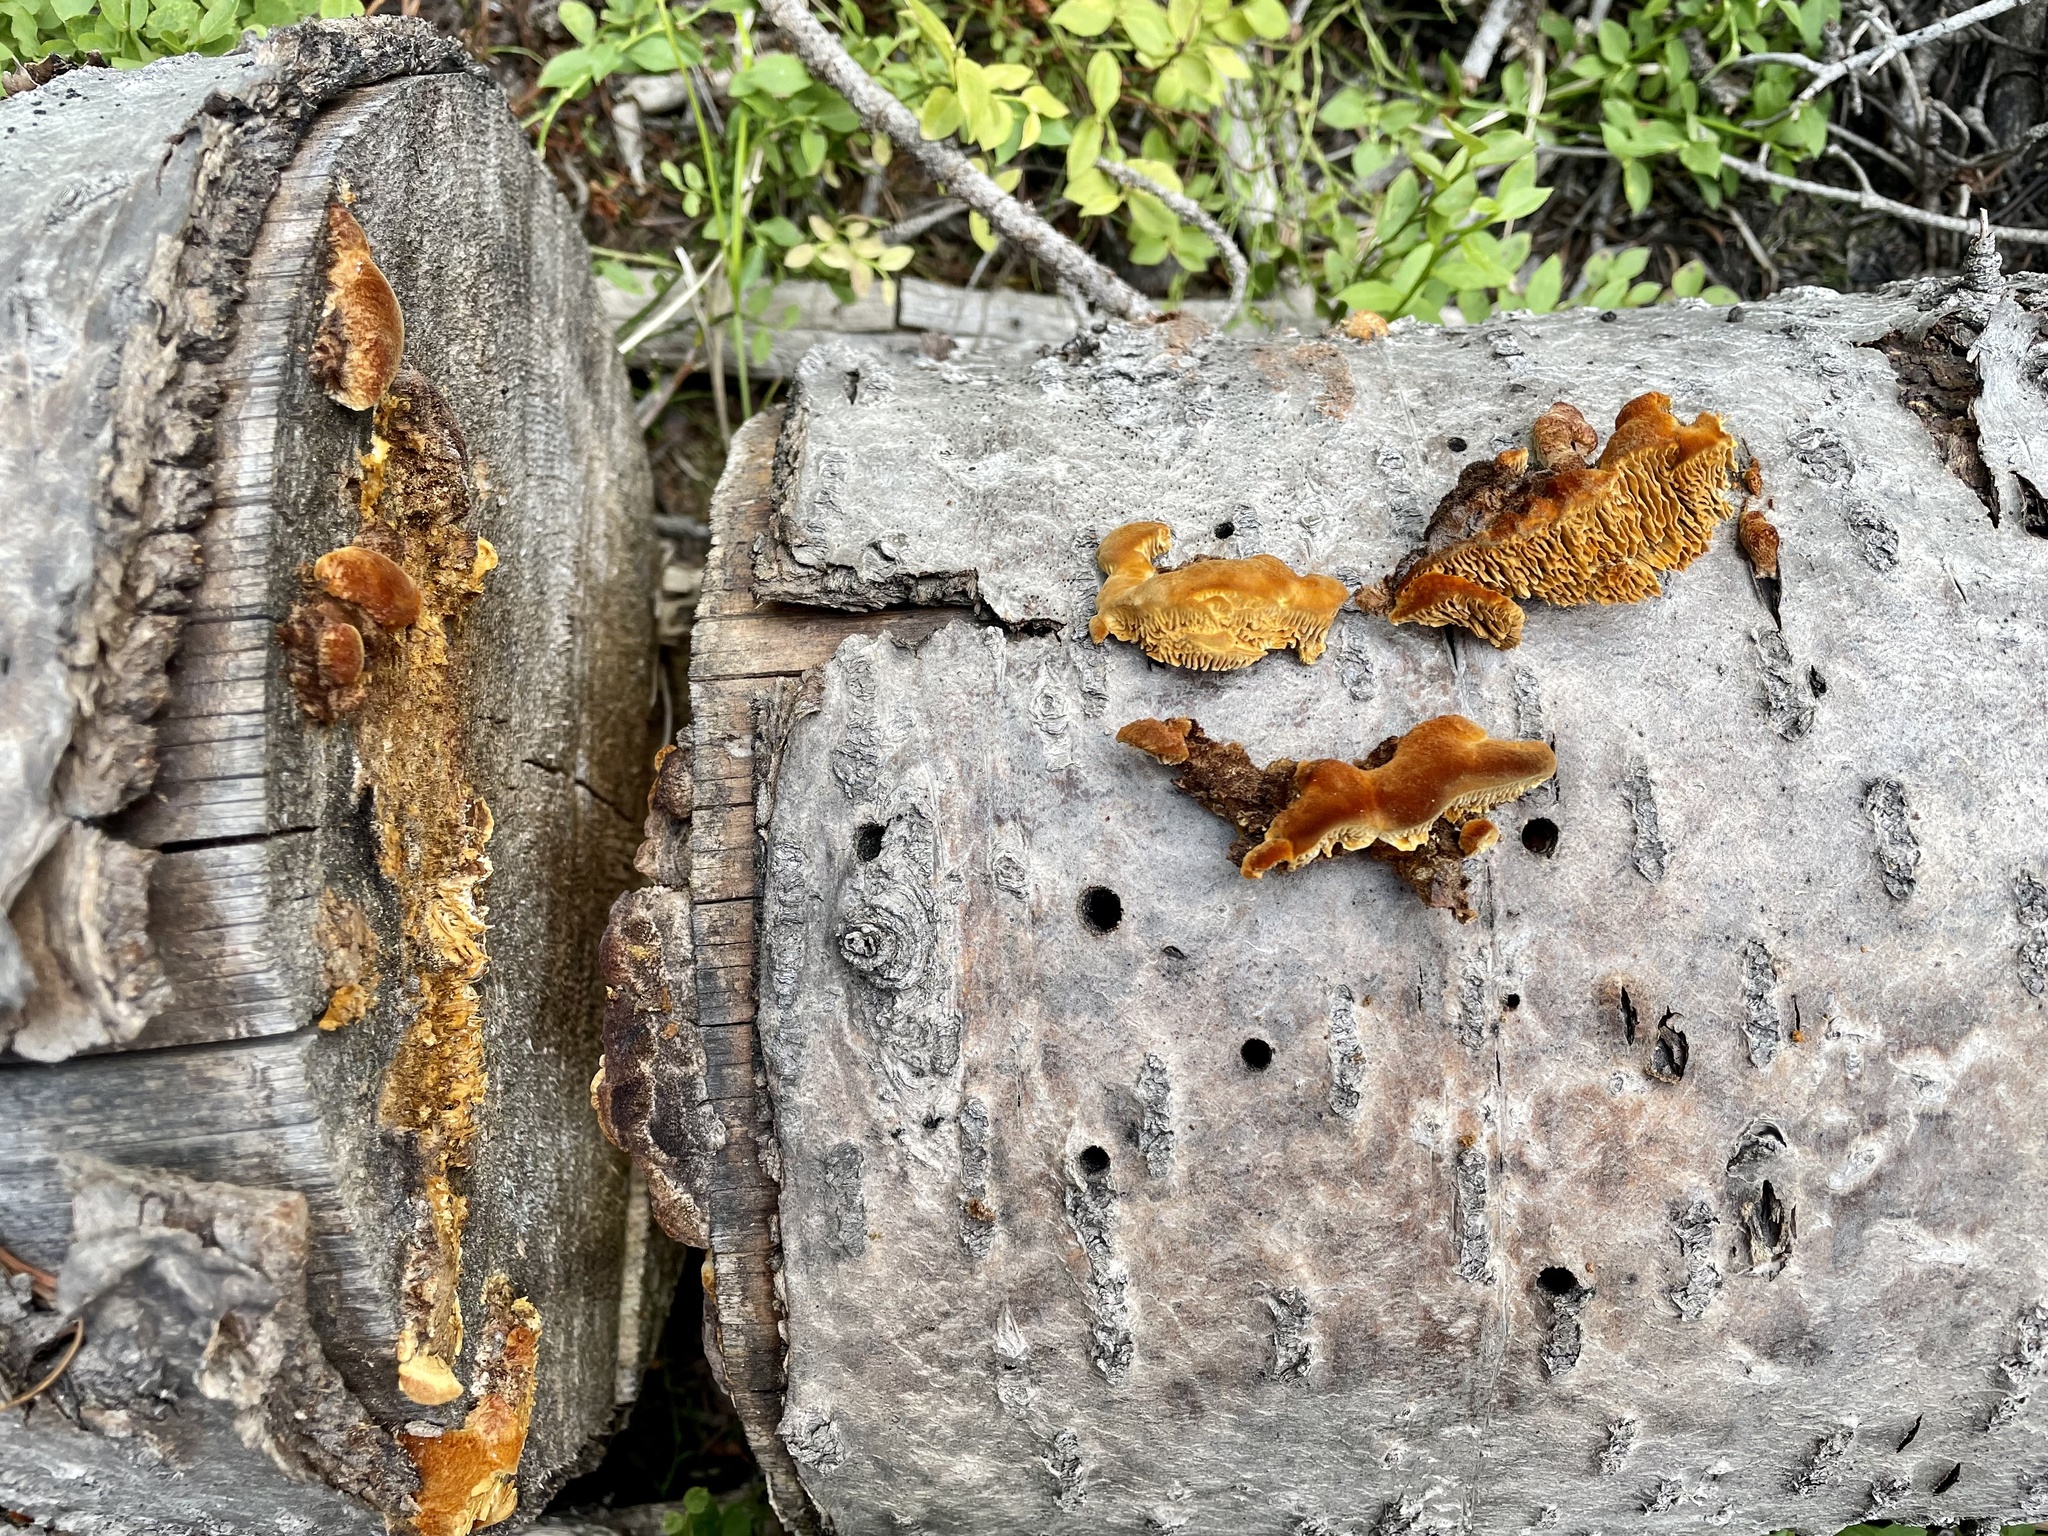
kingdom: Fungi
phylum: Basidiomycota
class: Agaricomycetes
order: Gloeophyllales
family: Gloeophyllaceae
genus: Gloeophyllum
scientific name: Gloeophyllum sepiarium
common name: Conifer mazegill
